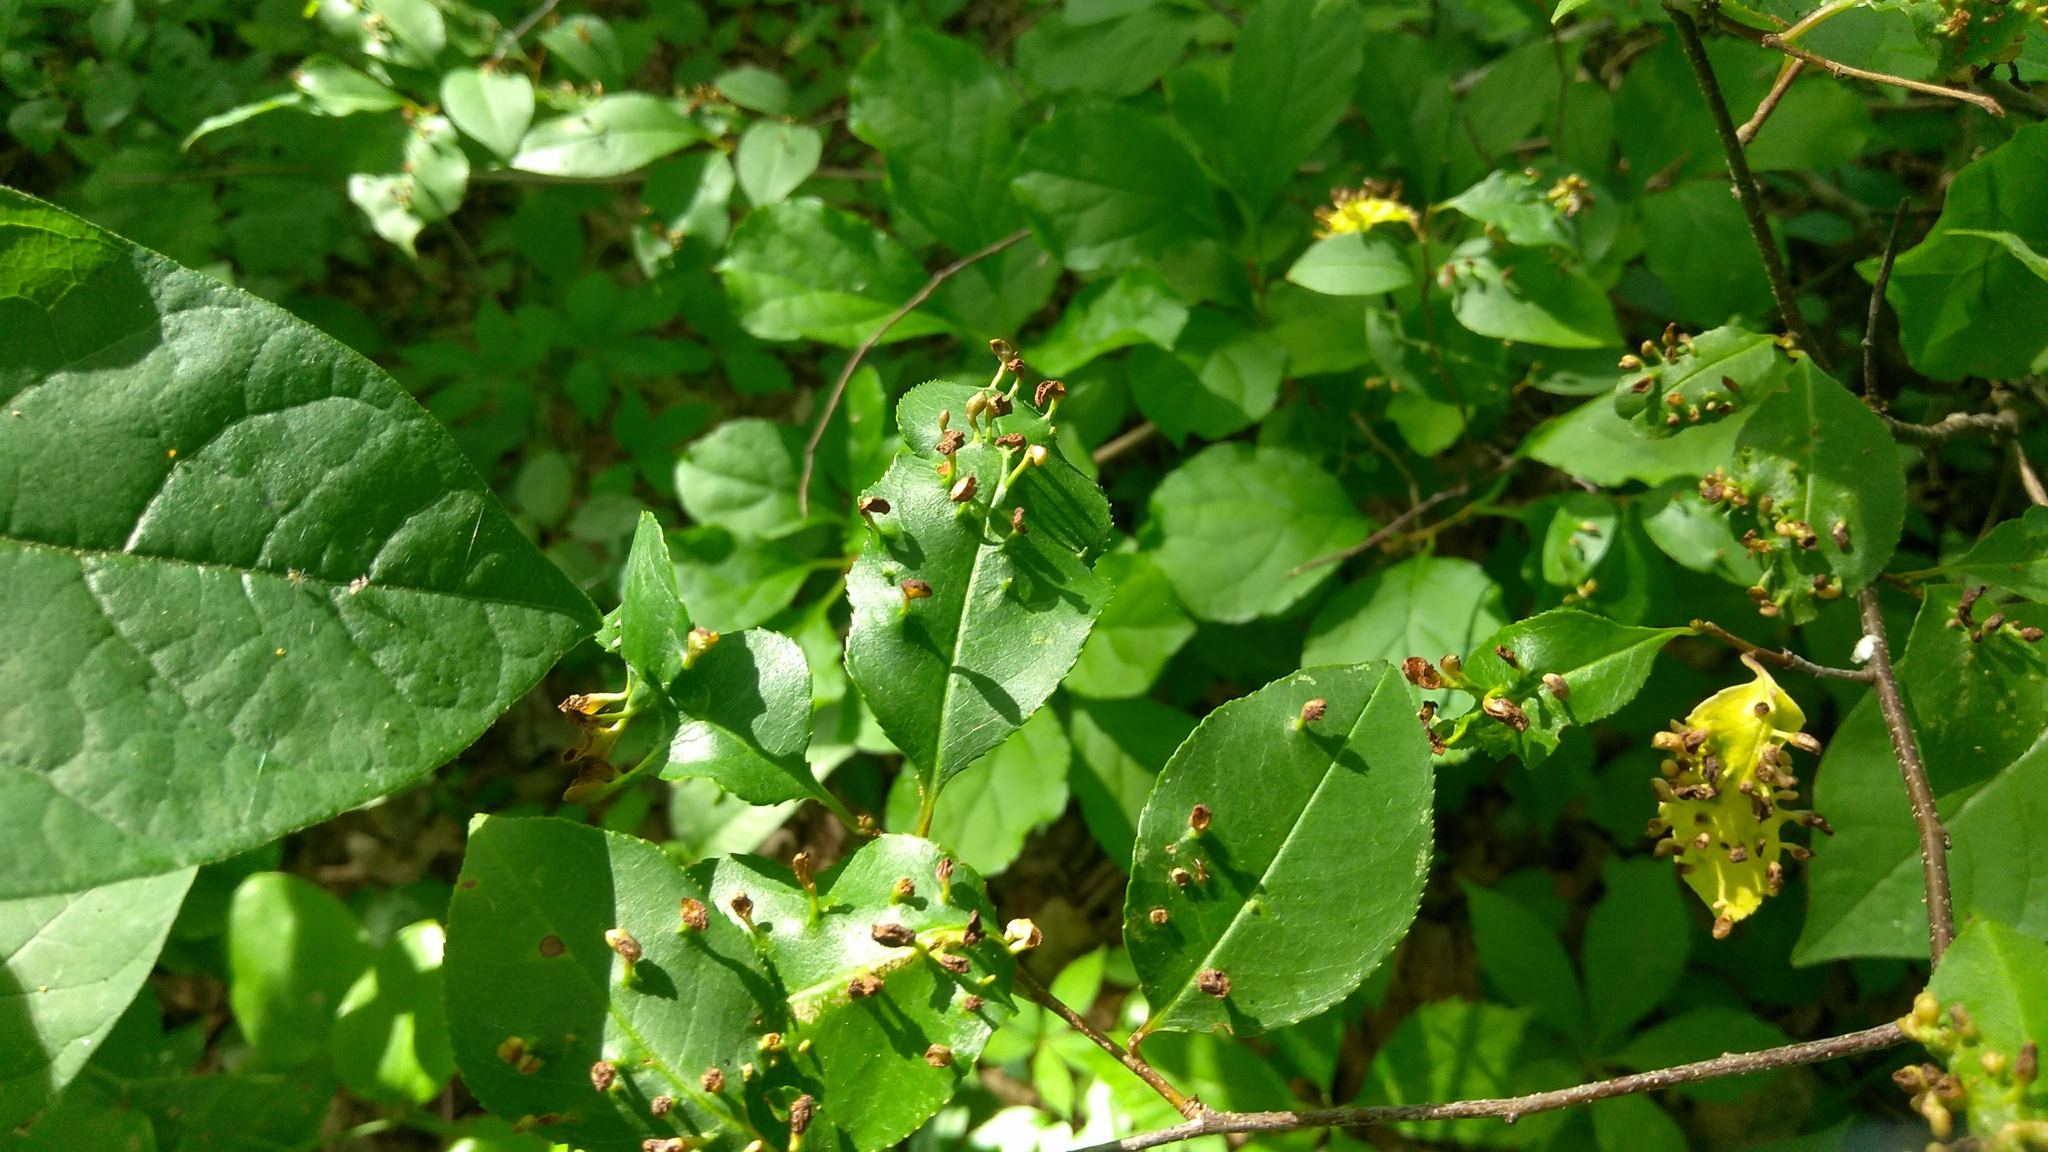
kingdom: Animalia
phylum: Arthropoda
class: Arachnida
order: Trombidiformes
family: Eriophyidae
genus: Eriophyes
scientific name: Eriophyes
